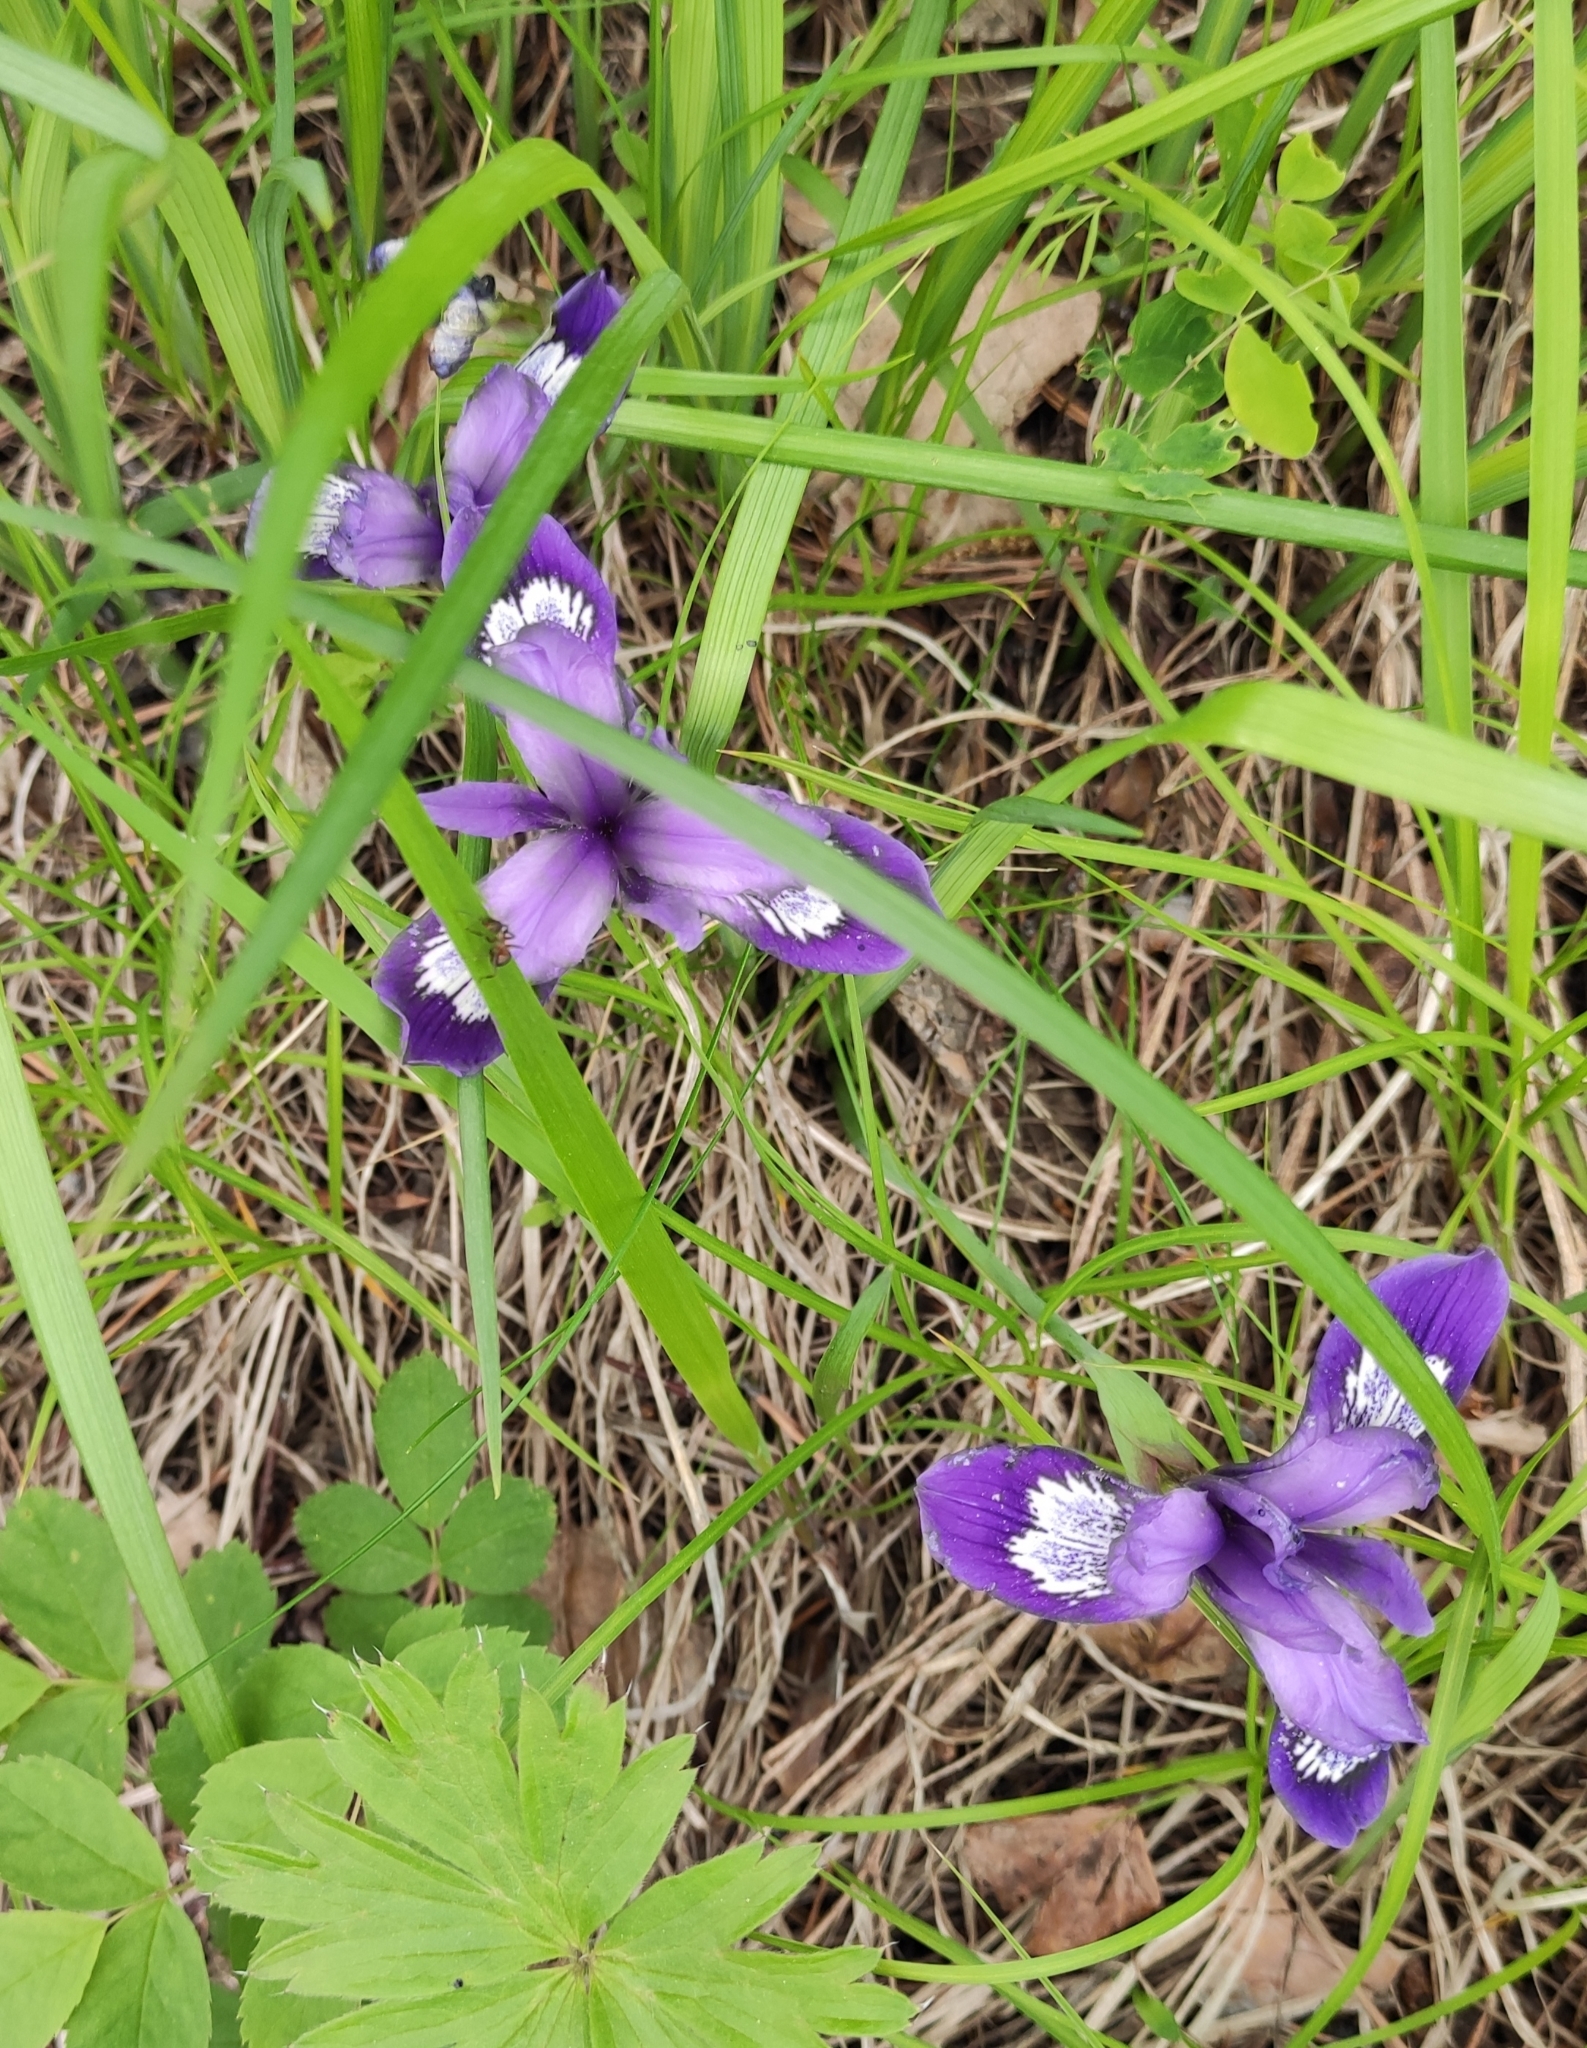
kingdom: Plantae
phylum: Tracheophyta
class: Liliopsida
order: Asparagales
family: Iridaceae
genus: Iris
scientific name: Iris ruthenica
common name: Purple-bract iris
